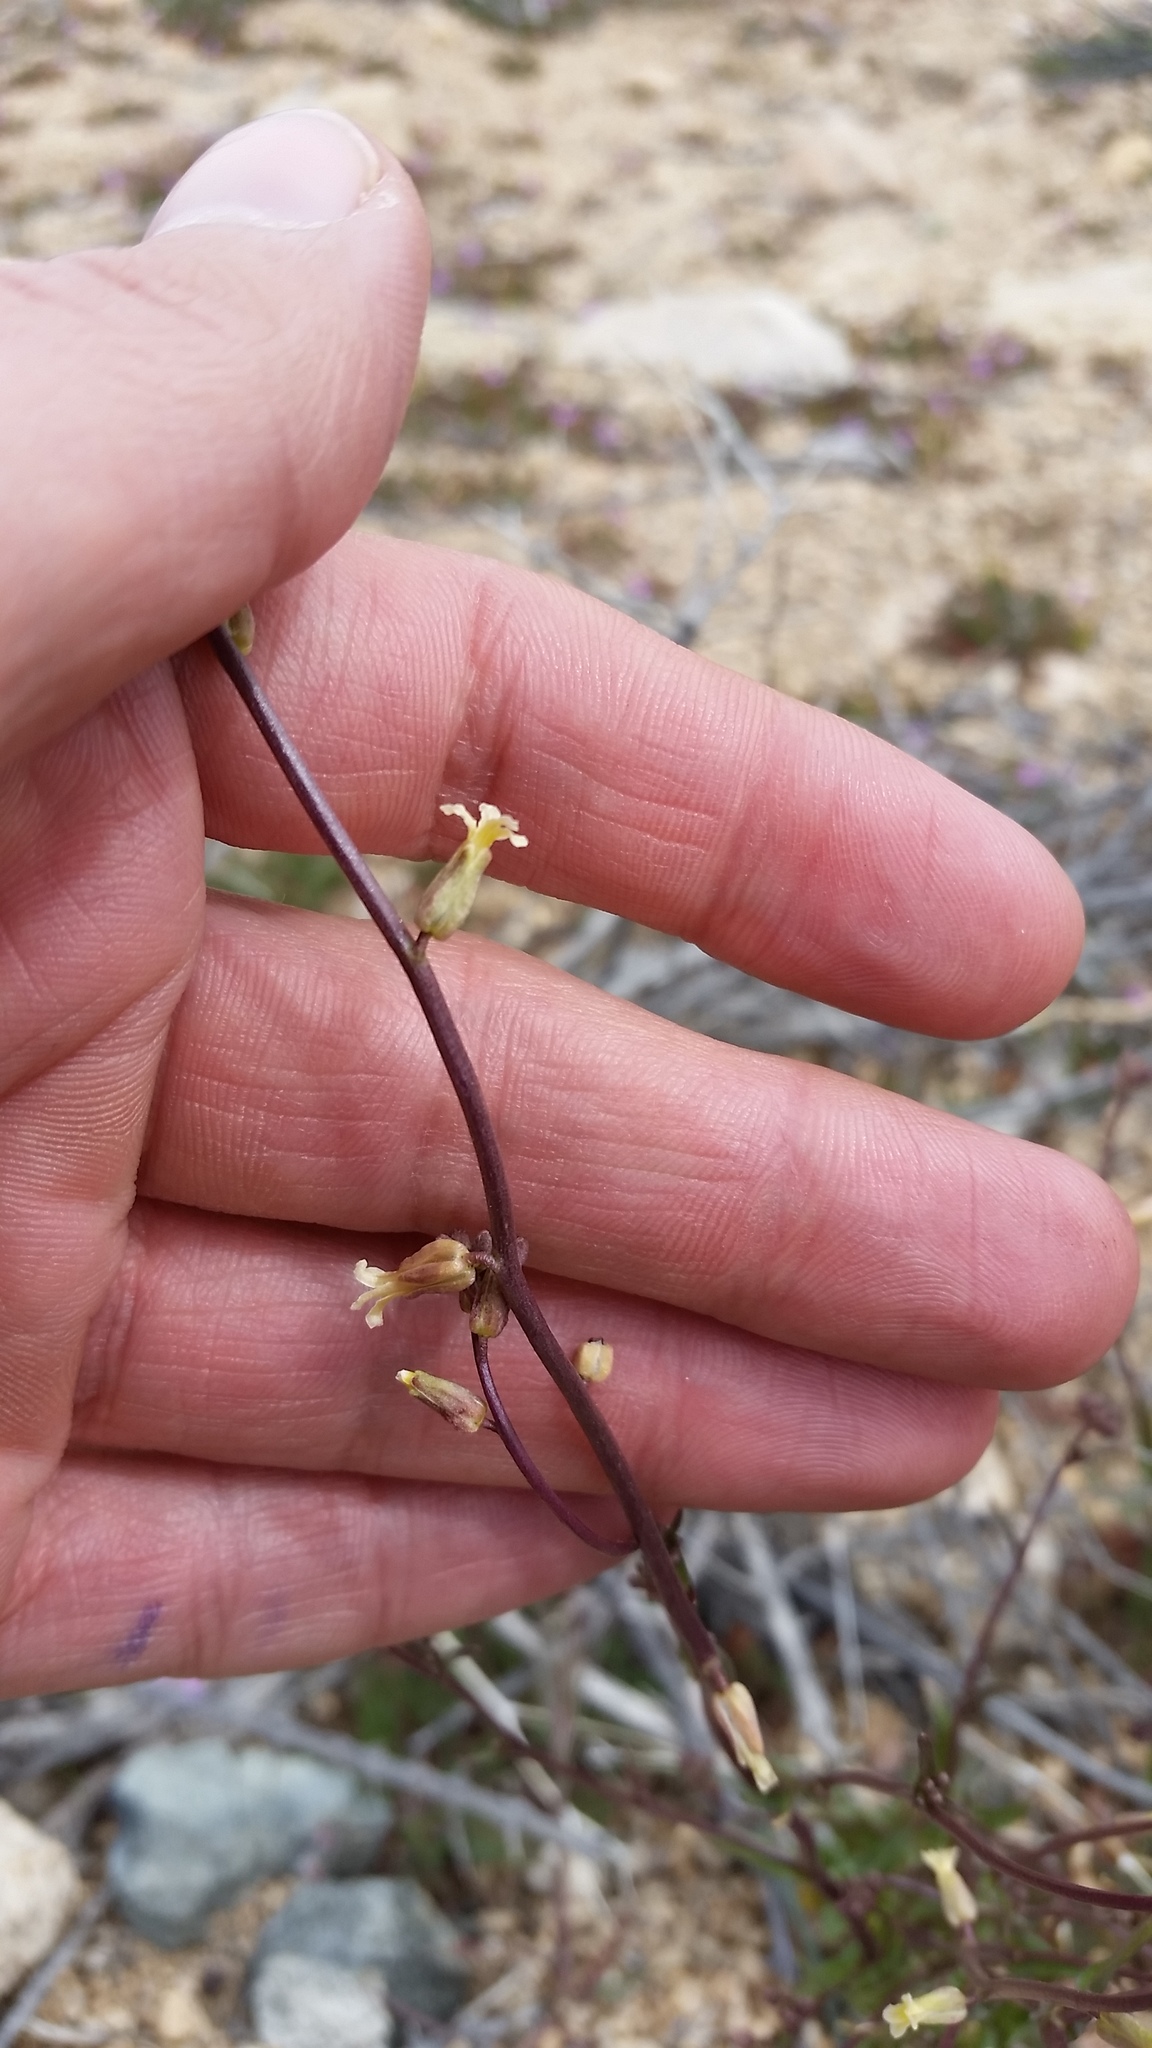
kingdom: Plantae
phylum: Tracheophyta
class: Magnoliopsida
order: Brassicales
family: Brassicaceae
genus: Streptanthus
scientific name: Streptanthus cooperi
